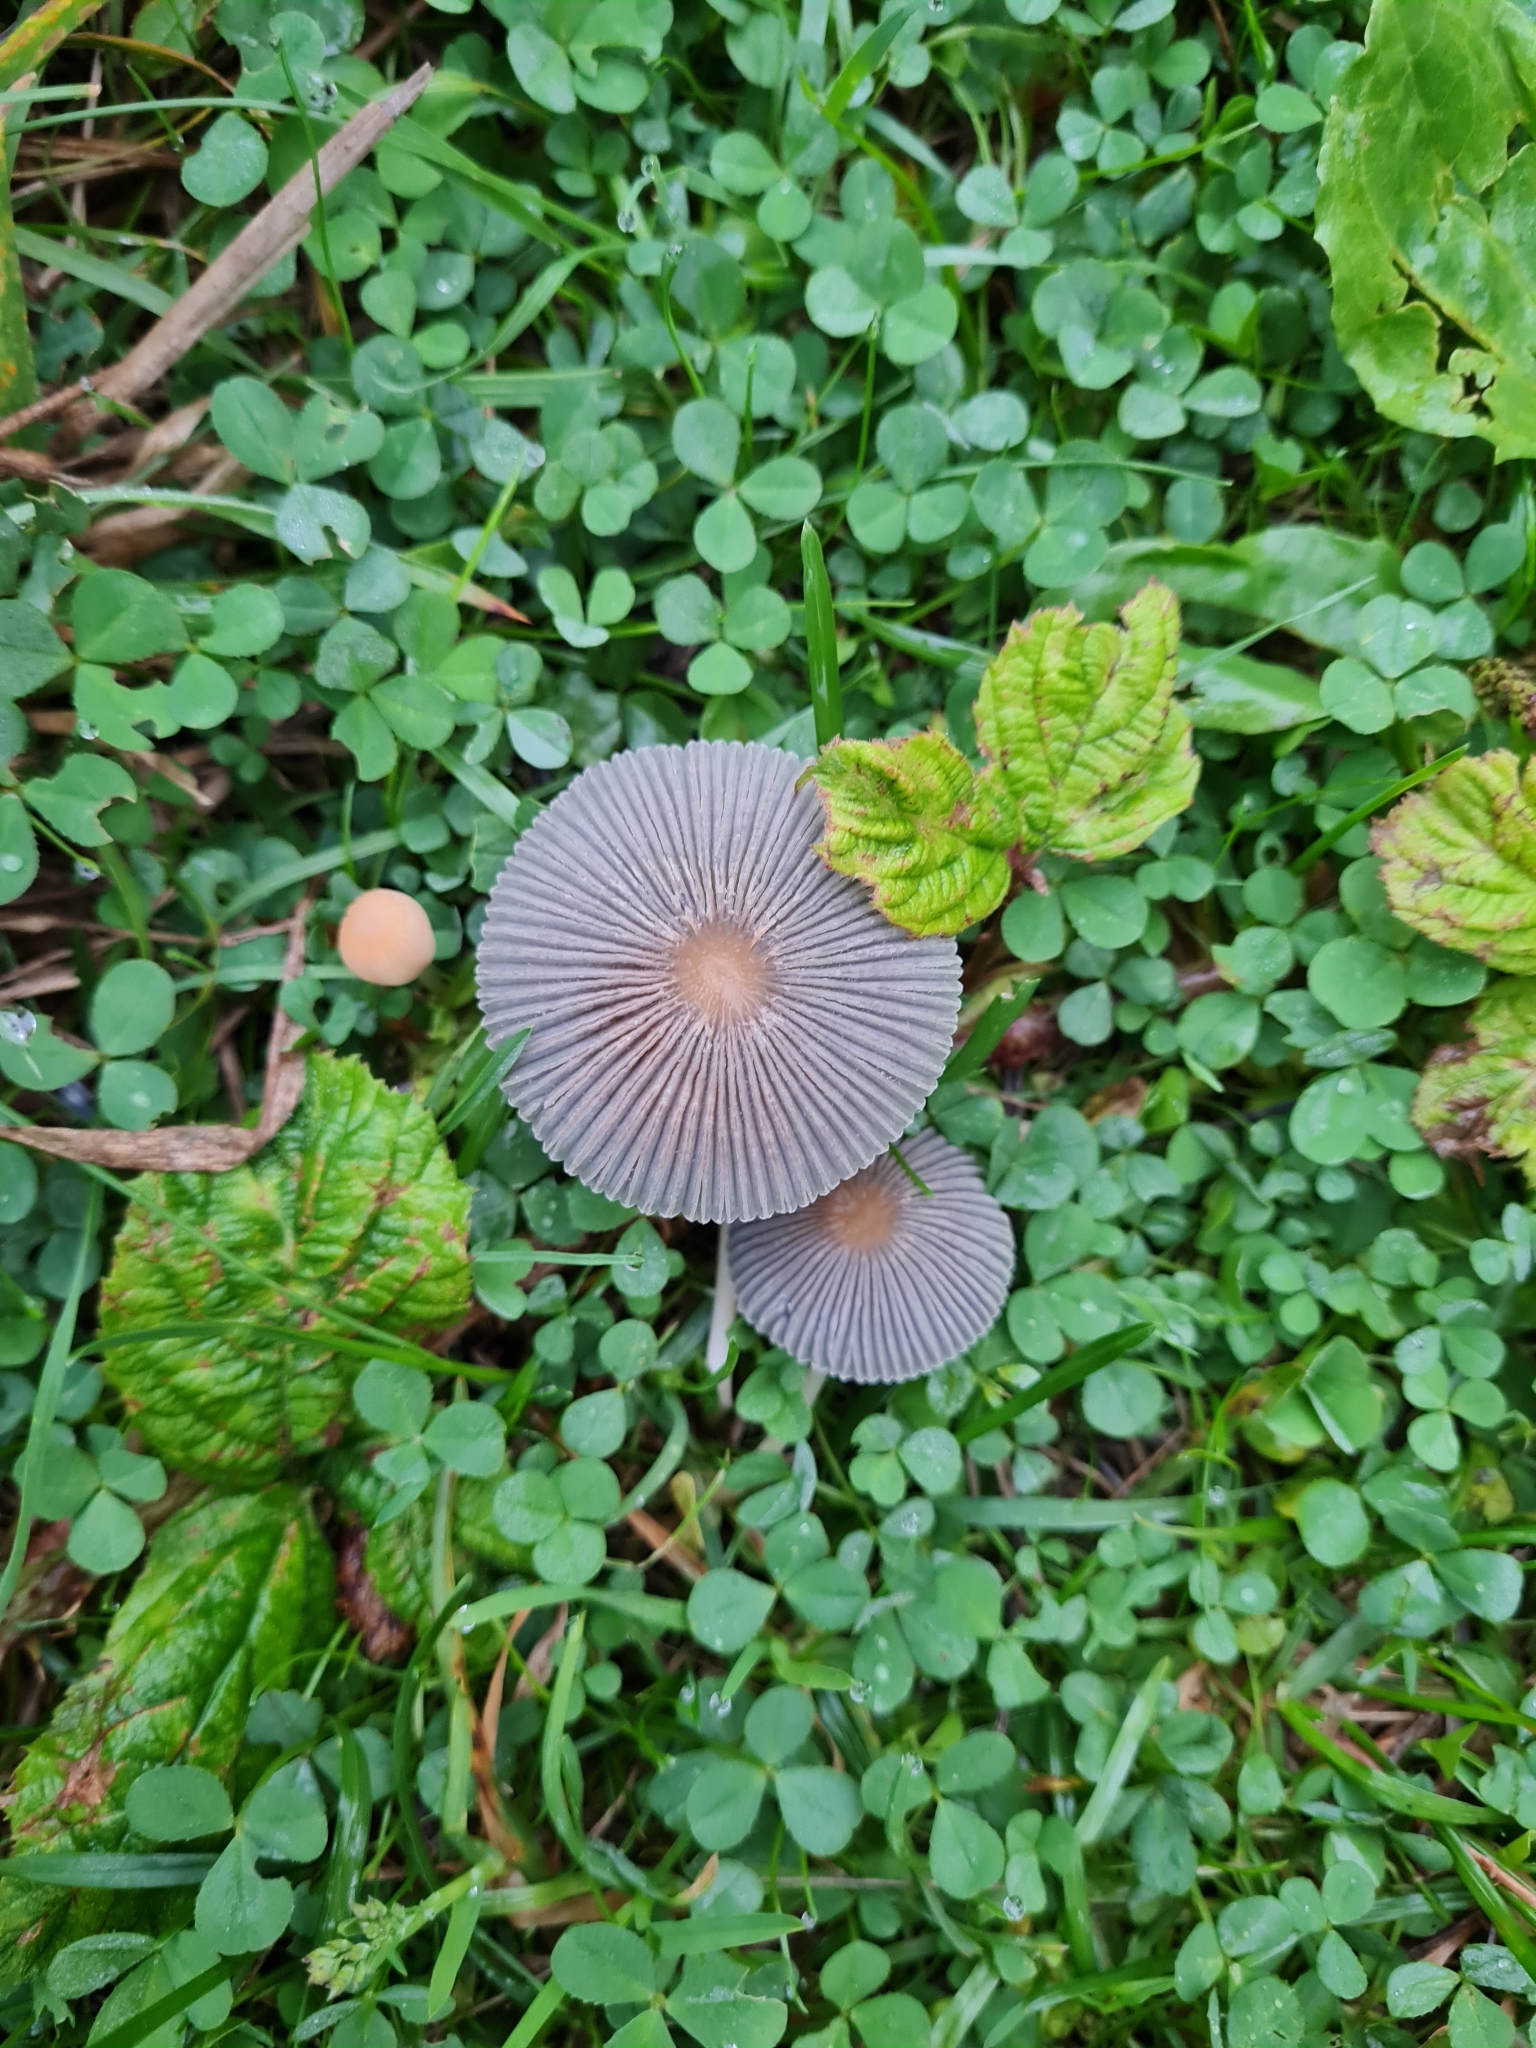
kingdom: Fungi
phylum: Basidiomycota
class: Agaricomycetes
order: Agaricales
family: Psathyrellaceae
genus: Parasola
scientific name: Parasola plicatilis
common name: Pleated inkcap
